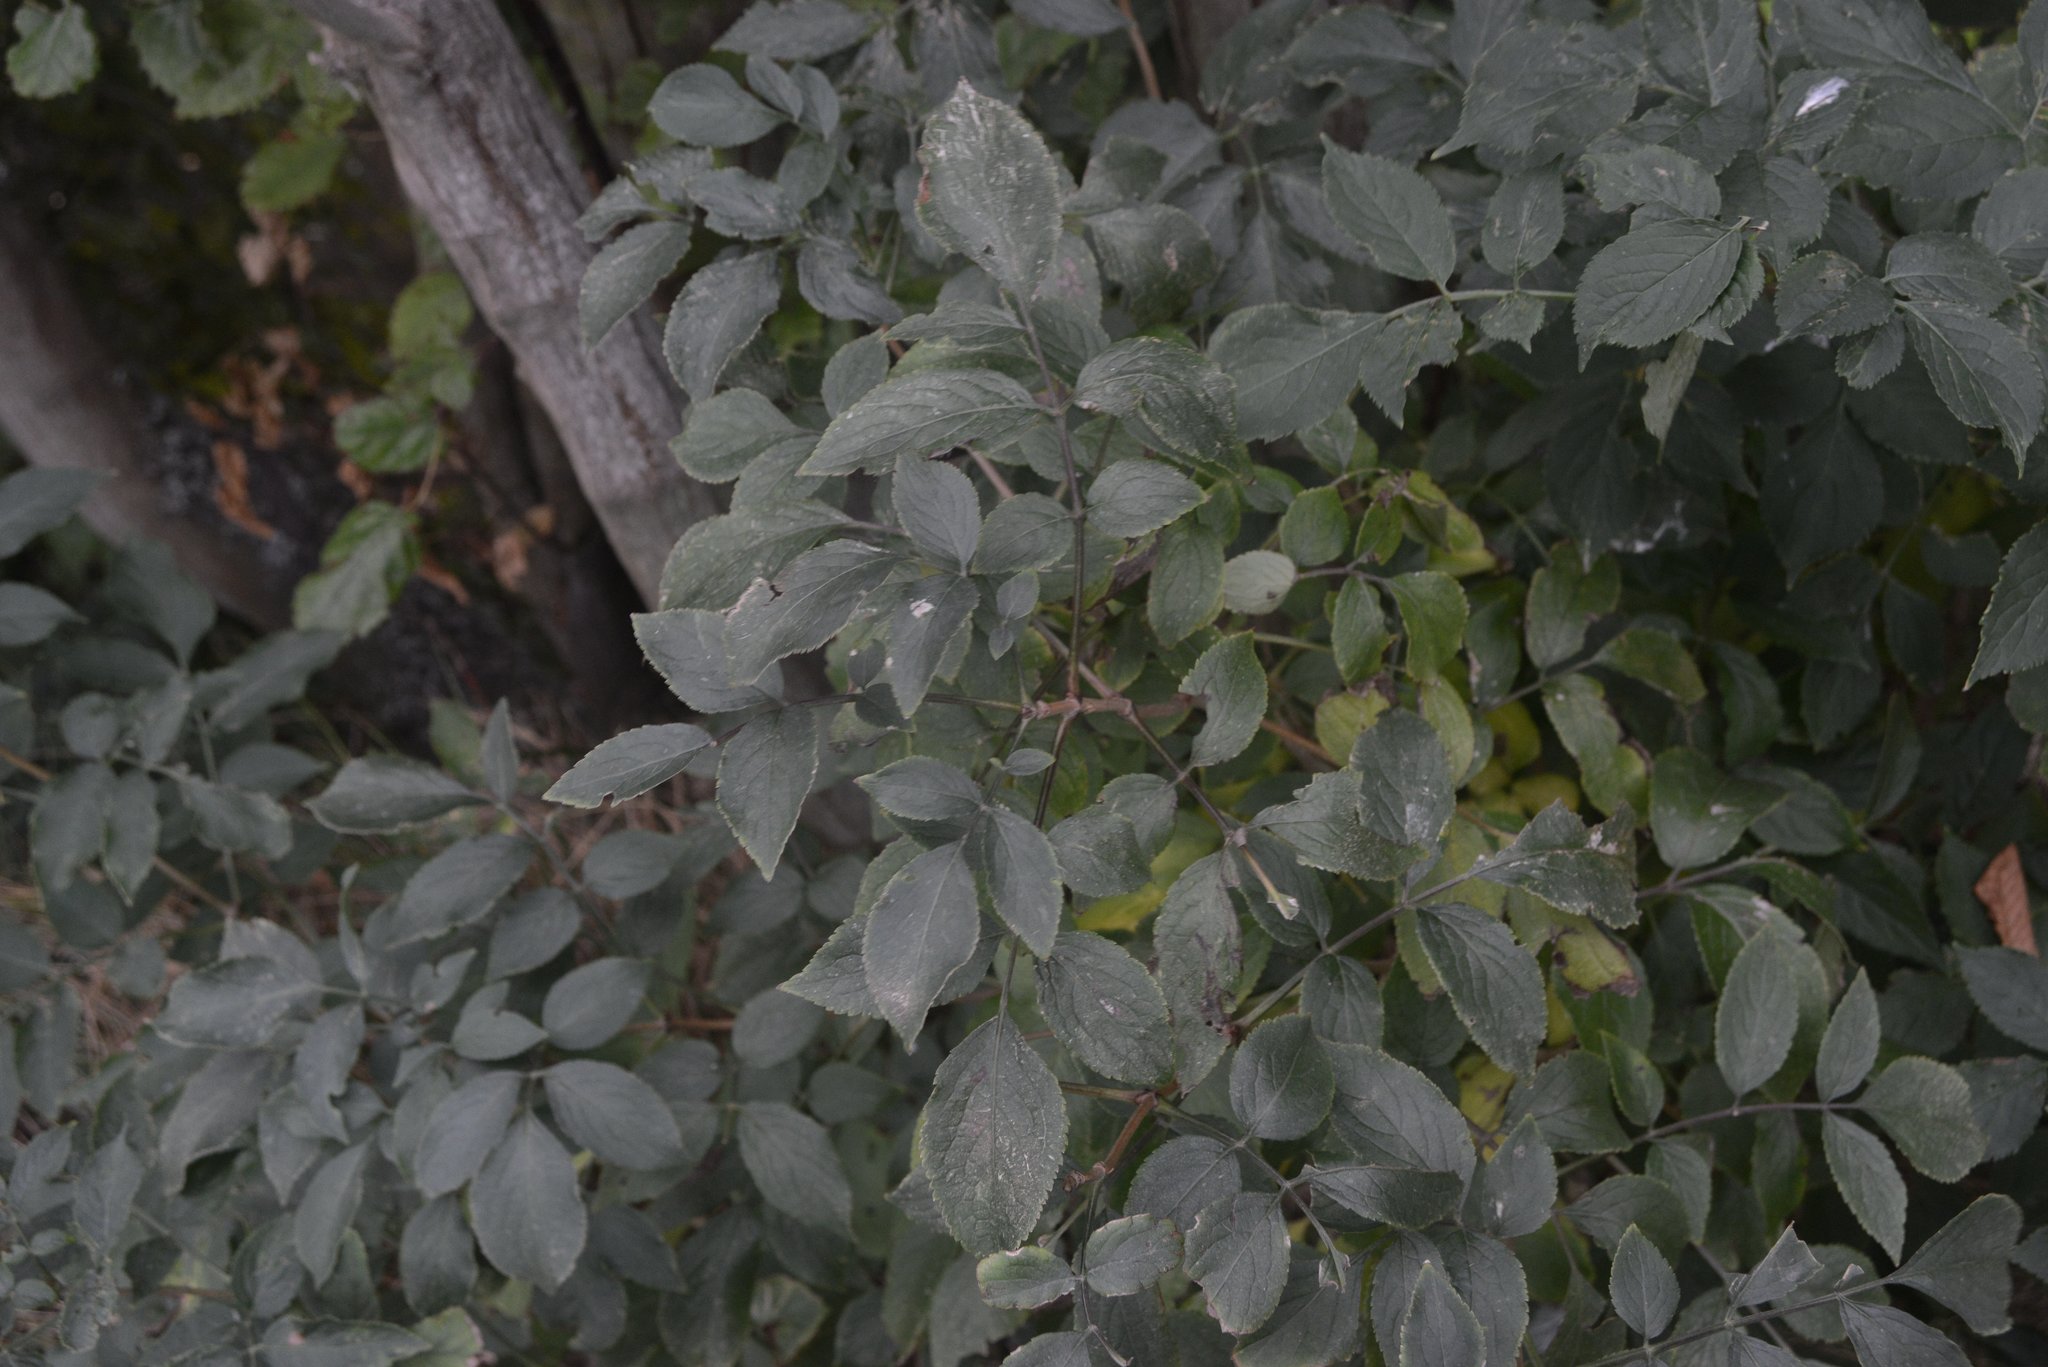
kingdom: Plantae
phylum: Tracheophyta
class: Magnoliopsida
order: Dipsacales
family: Viburnaceae
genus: Sambucus
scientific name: Sambucus nigra
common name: Elder
